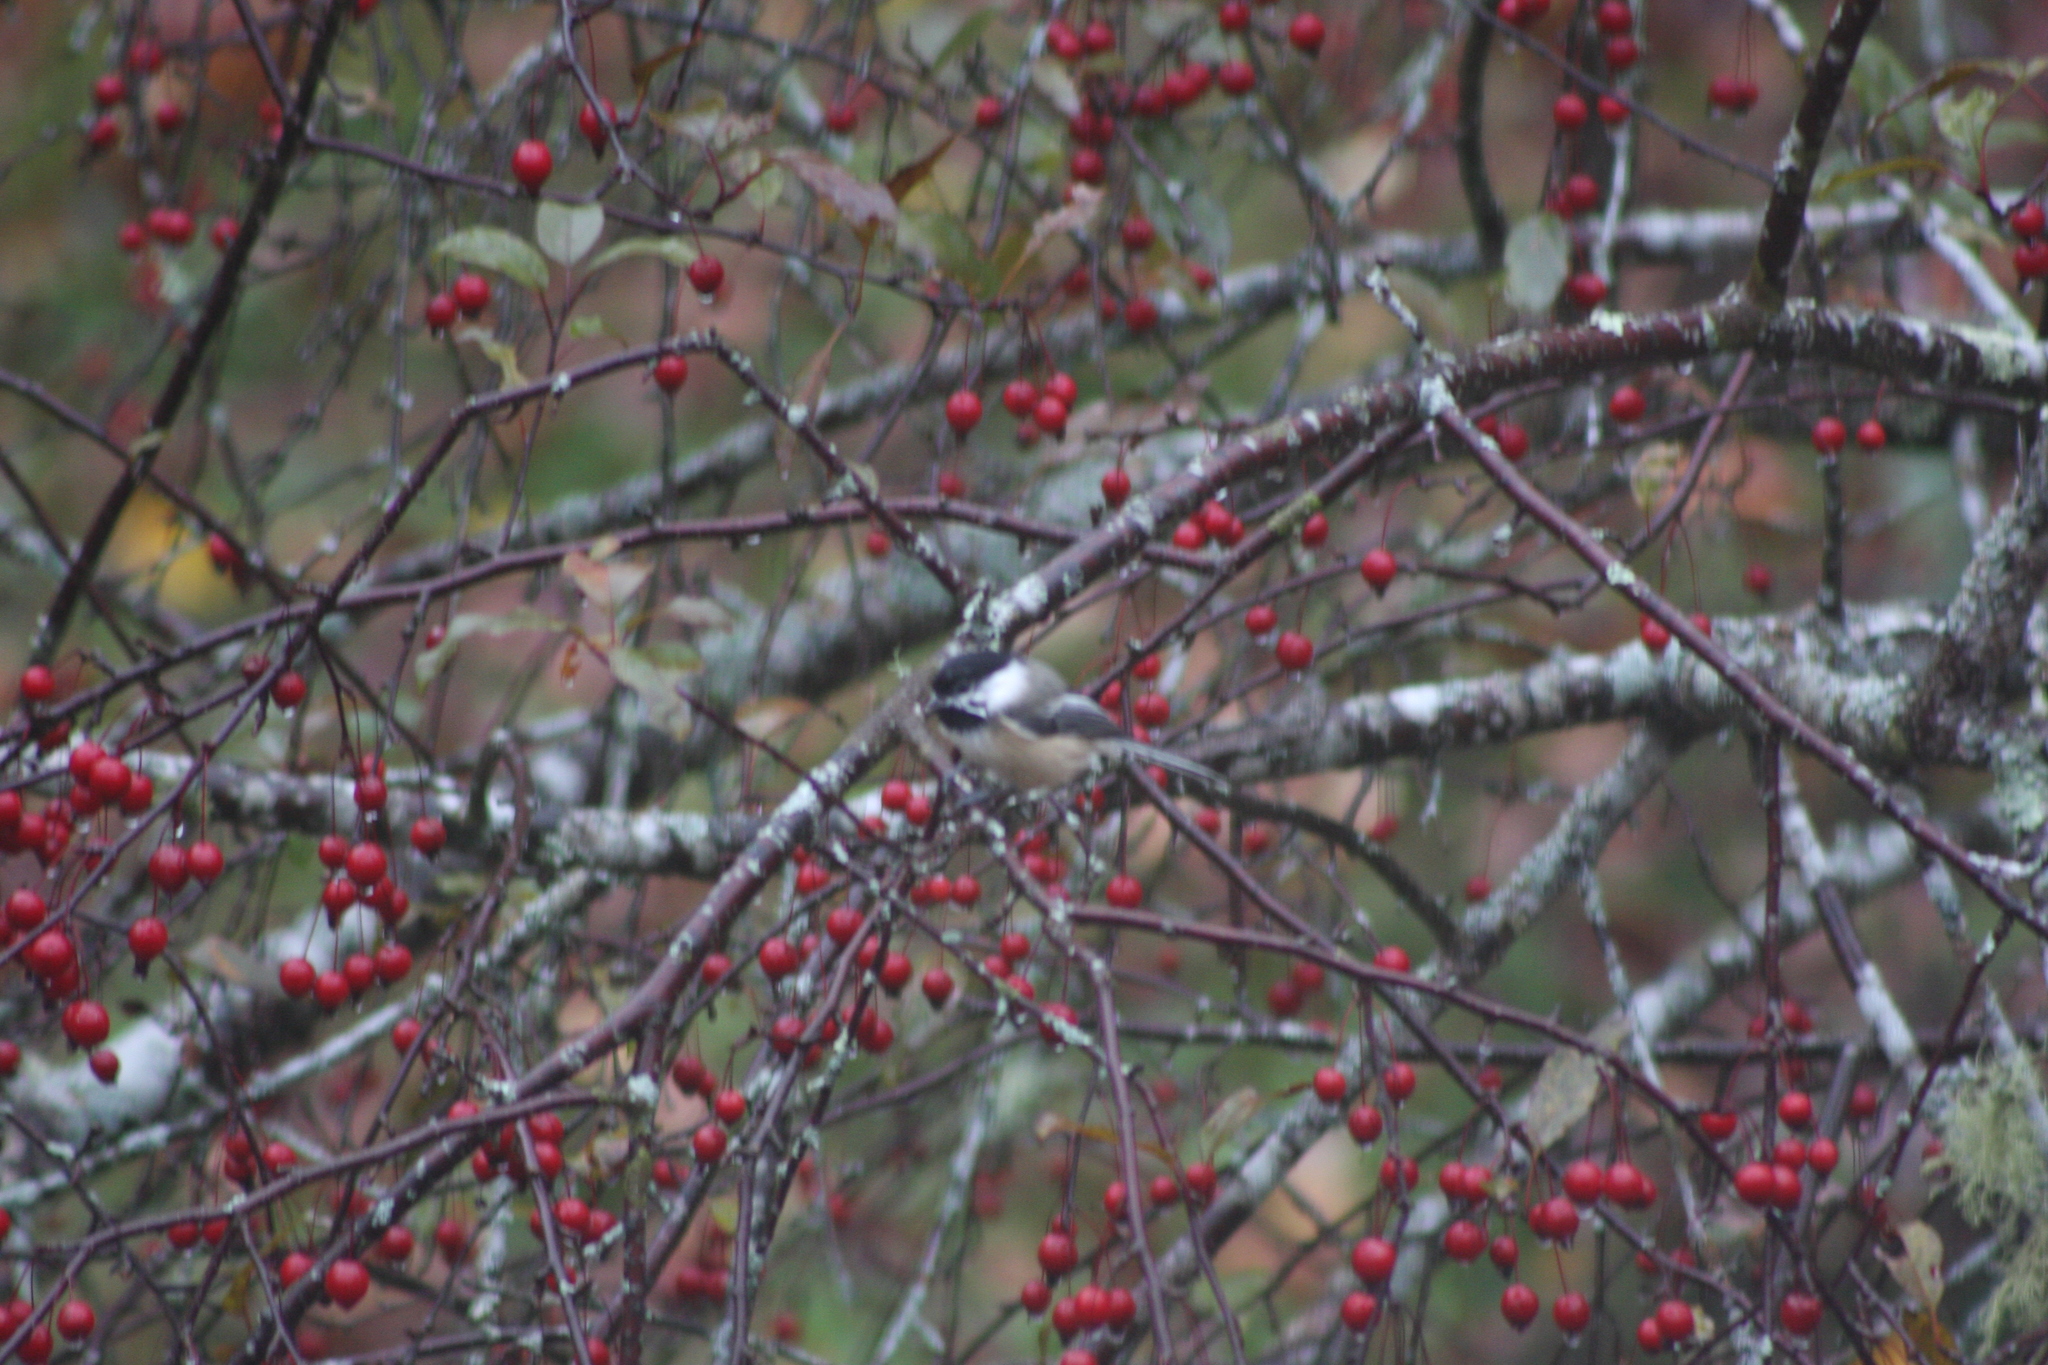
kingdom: Animalia
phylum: Chordata
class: Aves
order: Passeriformes
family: Paridae
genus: Poecile
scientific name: Poecile atricapillus
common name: Black-capped chickadee
